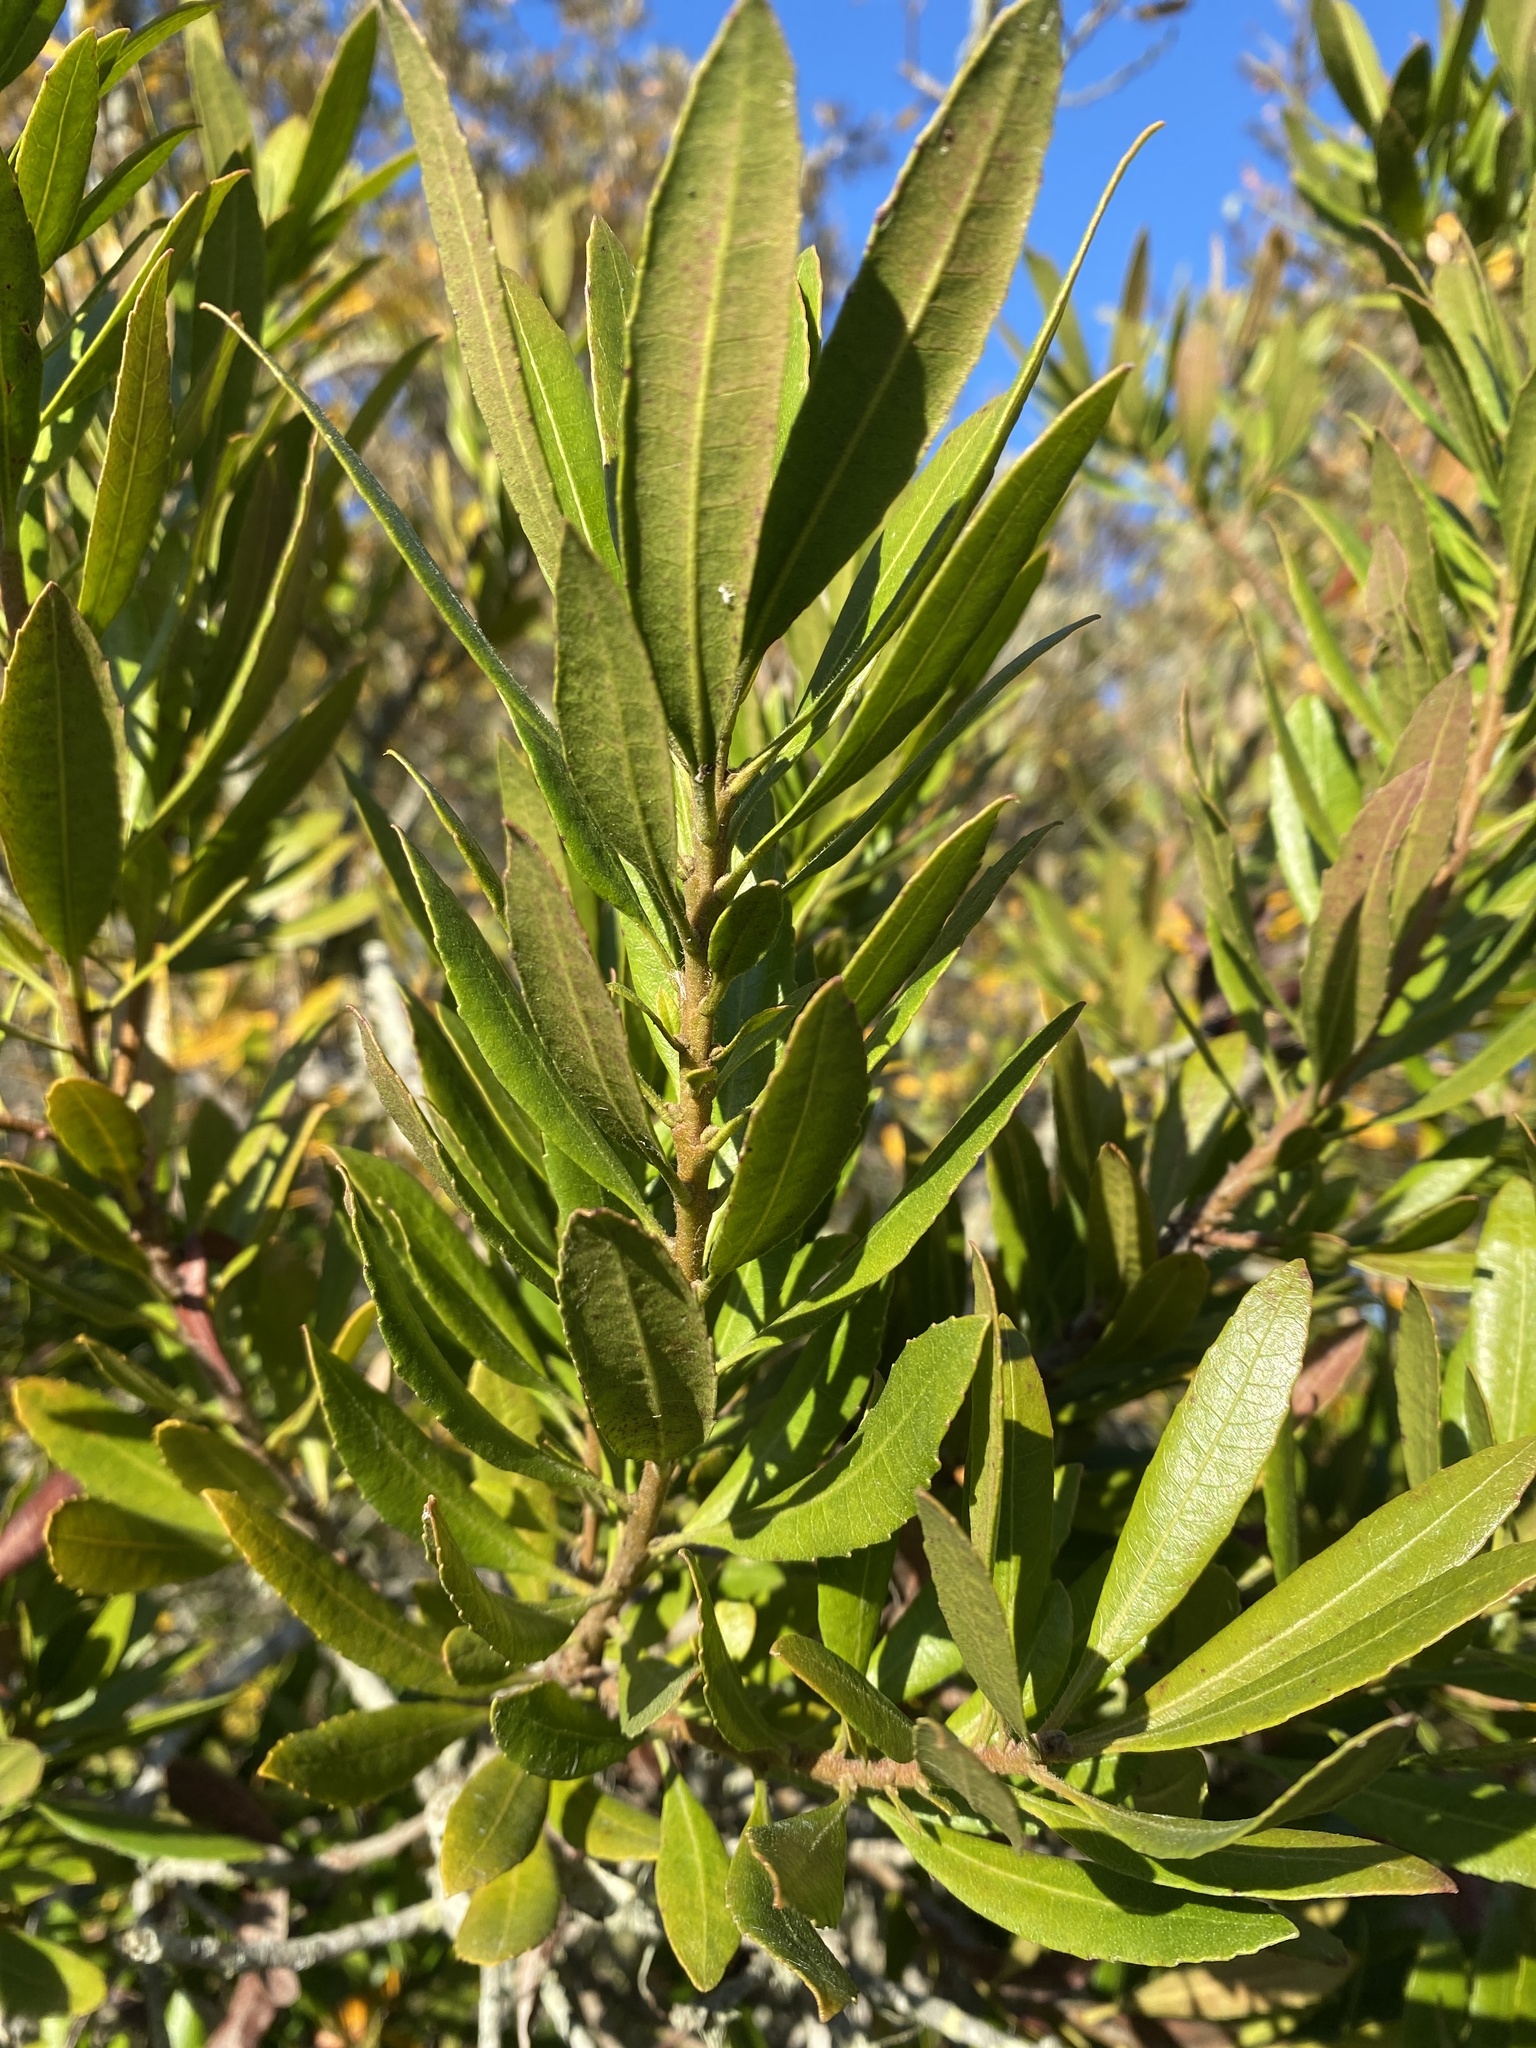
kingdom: Plantae
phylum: Tracheophyta
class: Magnoliopsida
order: Fagales
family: Myricaceae
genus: Morella
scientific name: Morella californica
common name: California wax-myrtle
